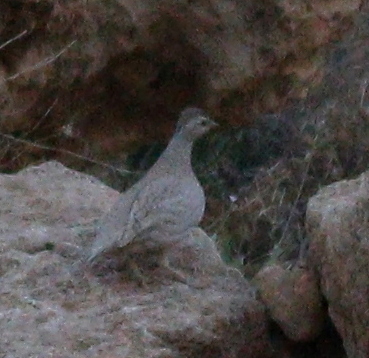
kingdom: Animalia
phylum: Chordata
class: Aves
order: Galliformes
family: Phasianidae
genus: Ammoperdix
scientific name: Ammoperdix heyi
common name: Sand partridge
